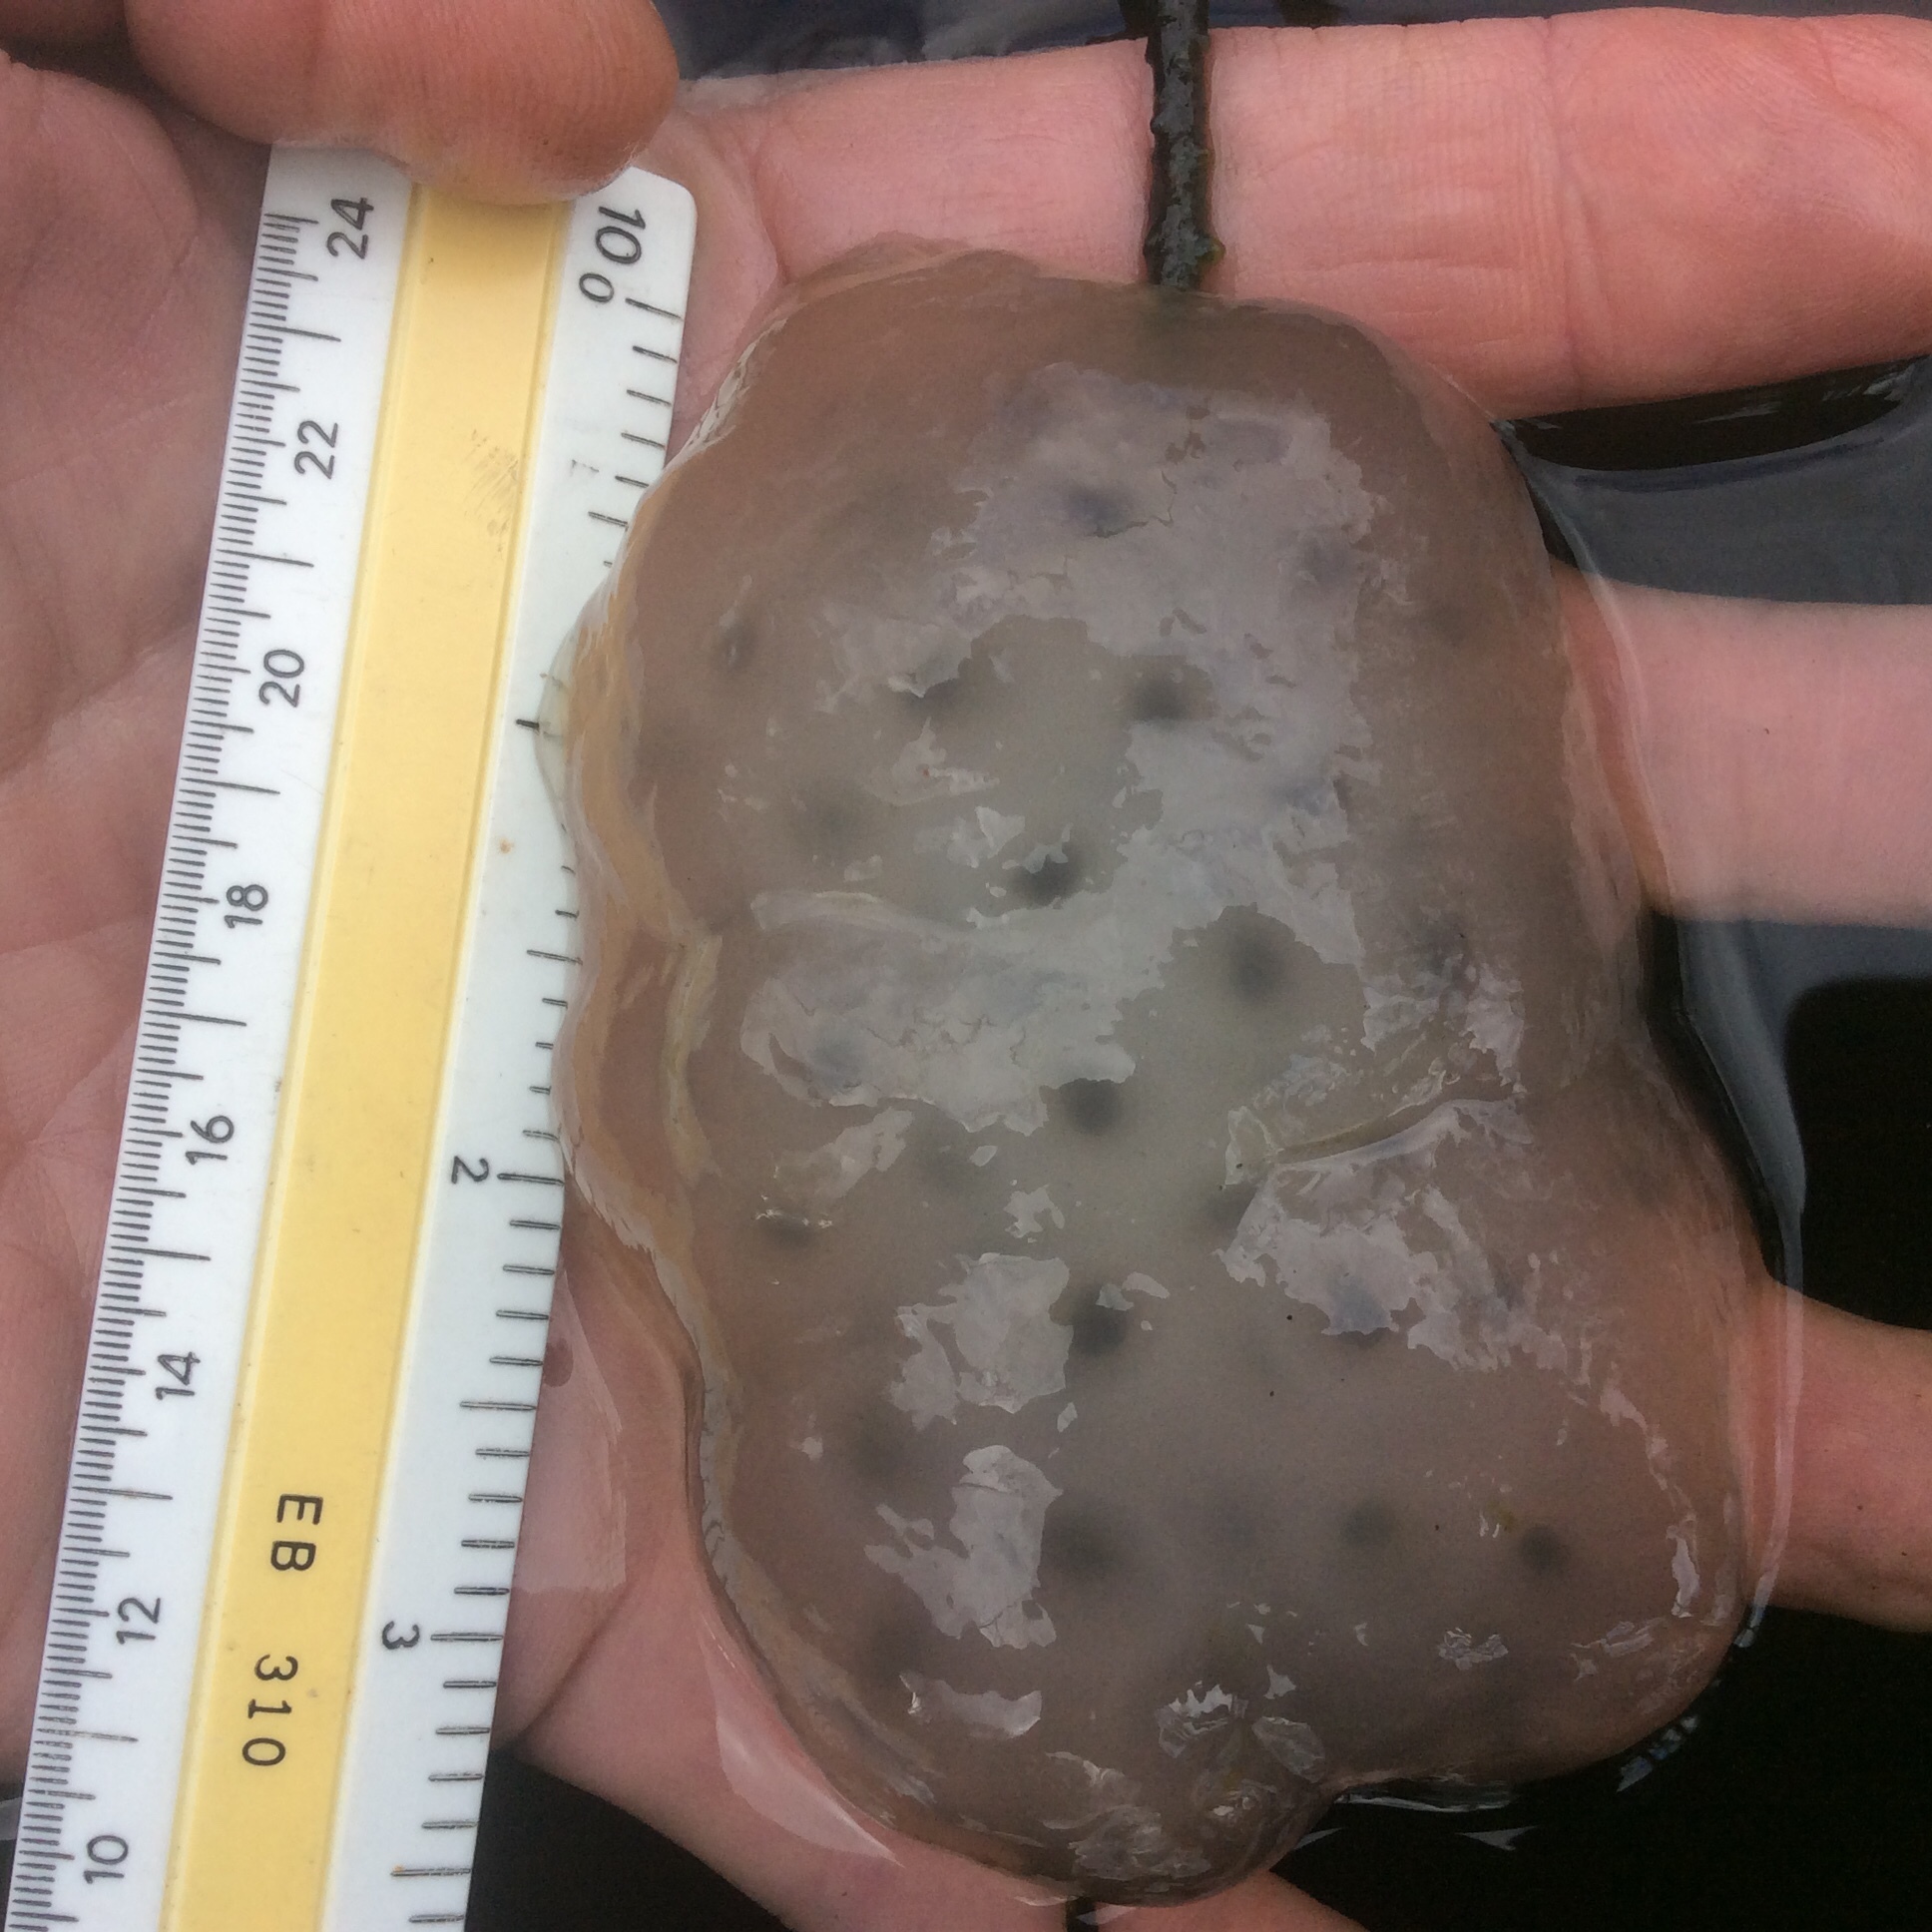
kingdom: Animalia
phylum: Chordata
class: Amphibia
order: Caudata
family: Ambystomatidae
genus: Ambystoma
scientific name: Ambystoma maculatum
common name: Spotted salamander
